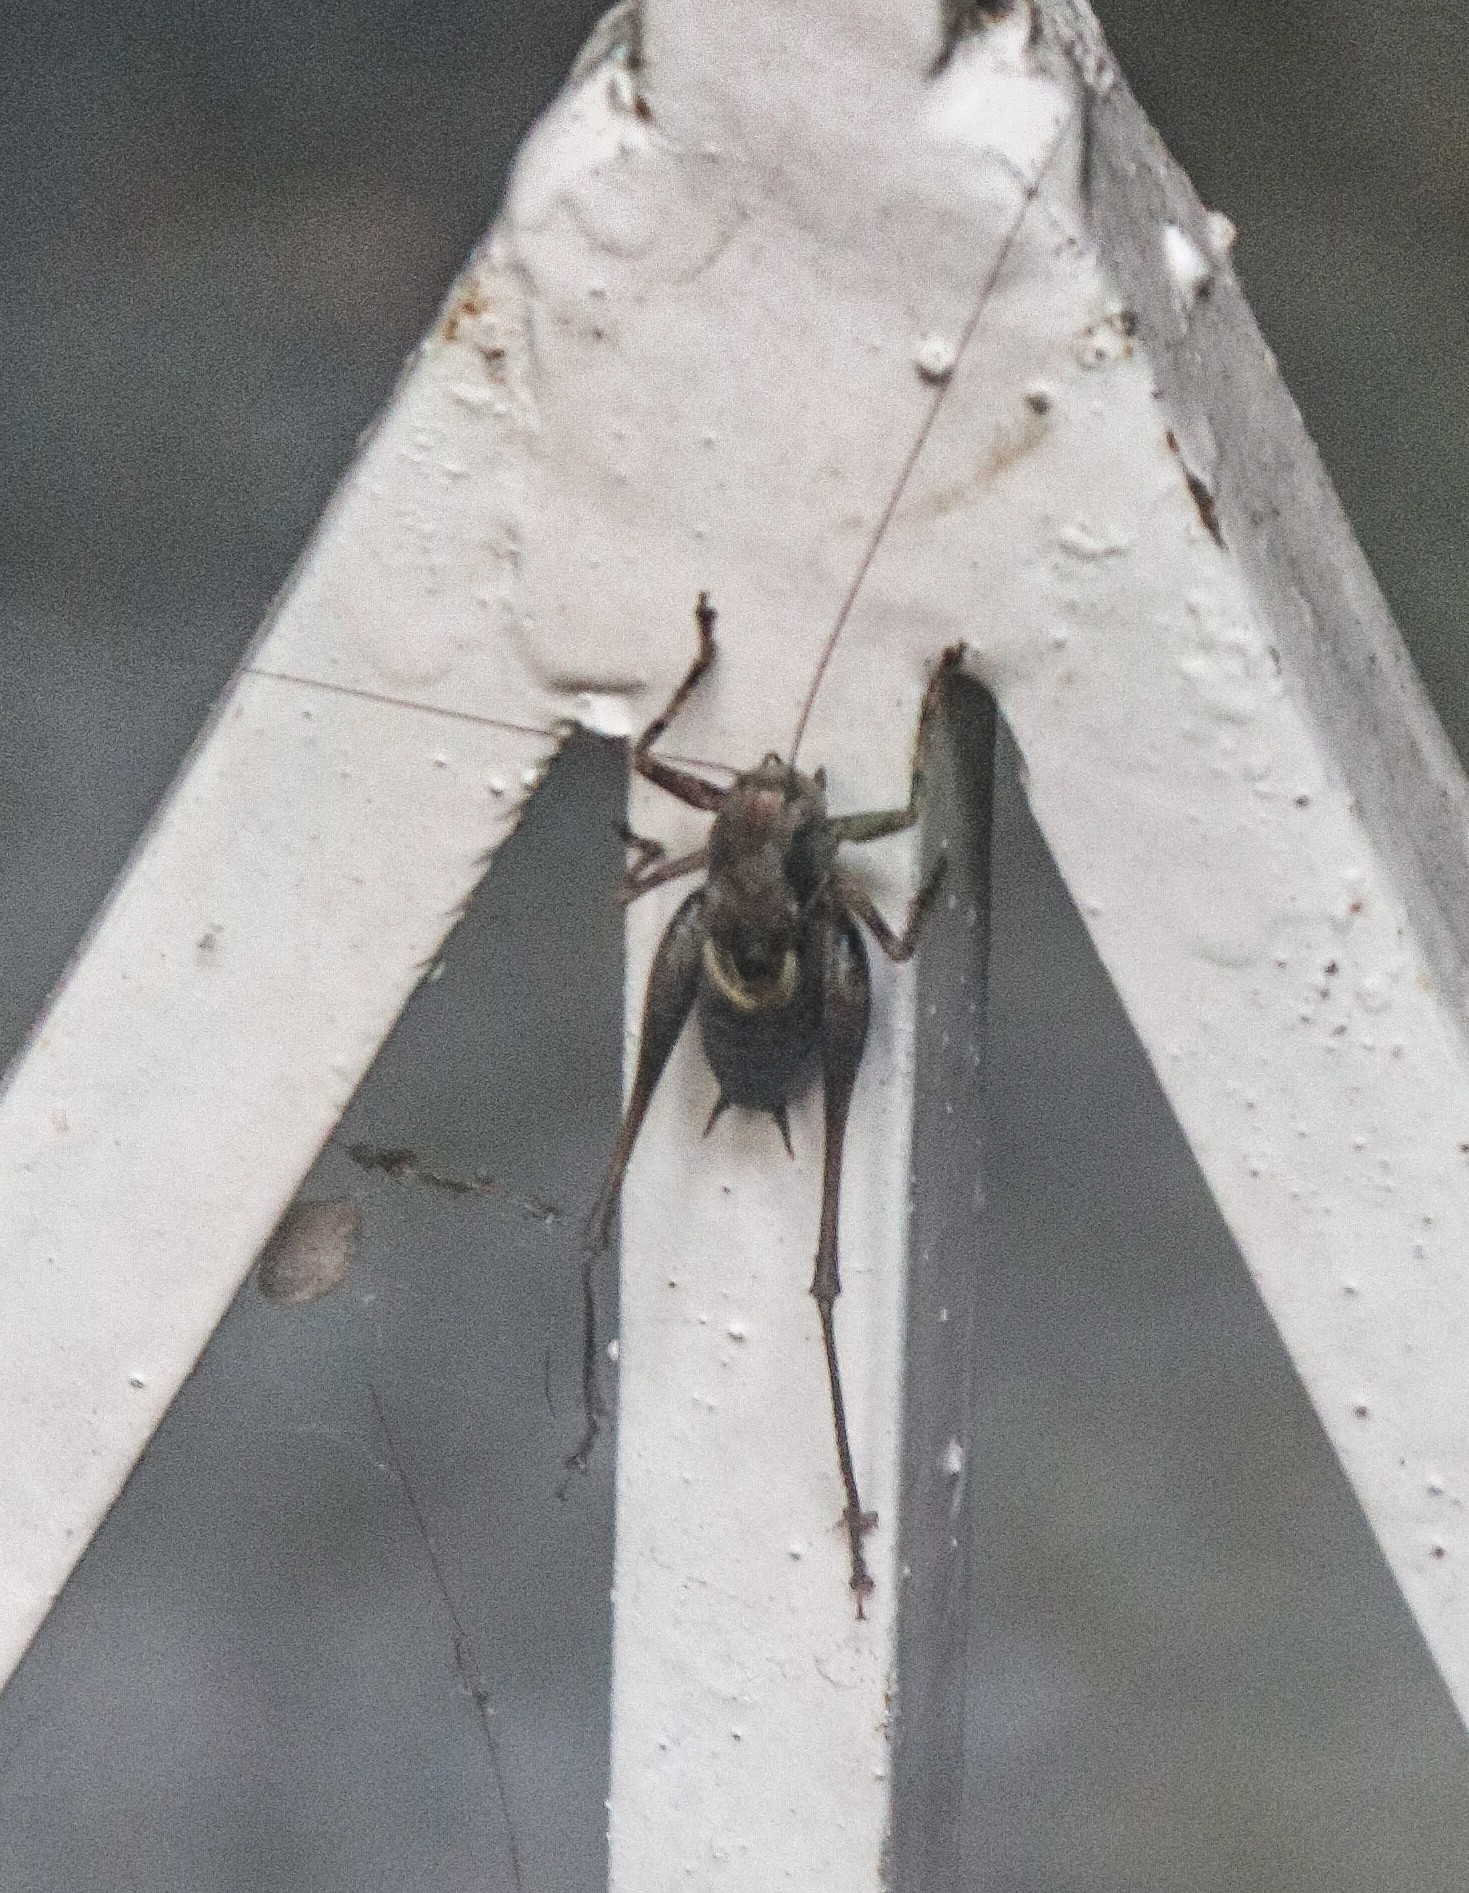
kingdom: Animalia
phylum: Arthropoda
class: Insecta
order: Orthoptera
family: Tettigoniidae
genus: Pholidoptera
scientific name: Pholidoptera griseoaptera
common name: Dark bush-cricket
